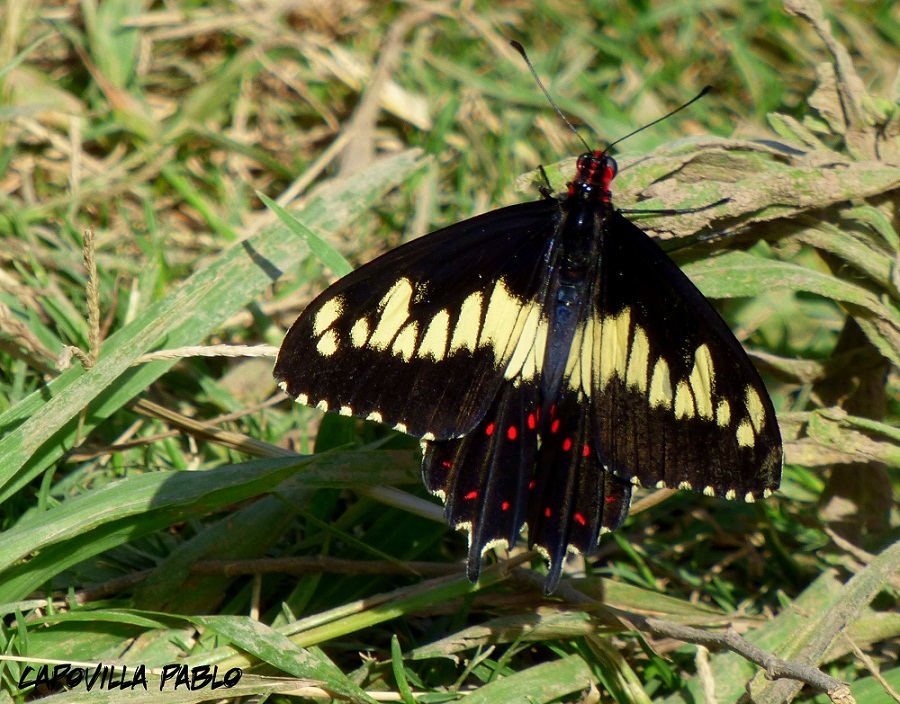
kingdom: Animalia
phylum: Arthropoda
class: Insecta
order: Lepidoptera
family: Papilionidae
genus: Euryades
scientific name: Euryades duponchelii
